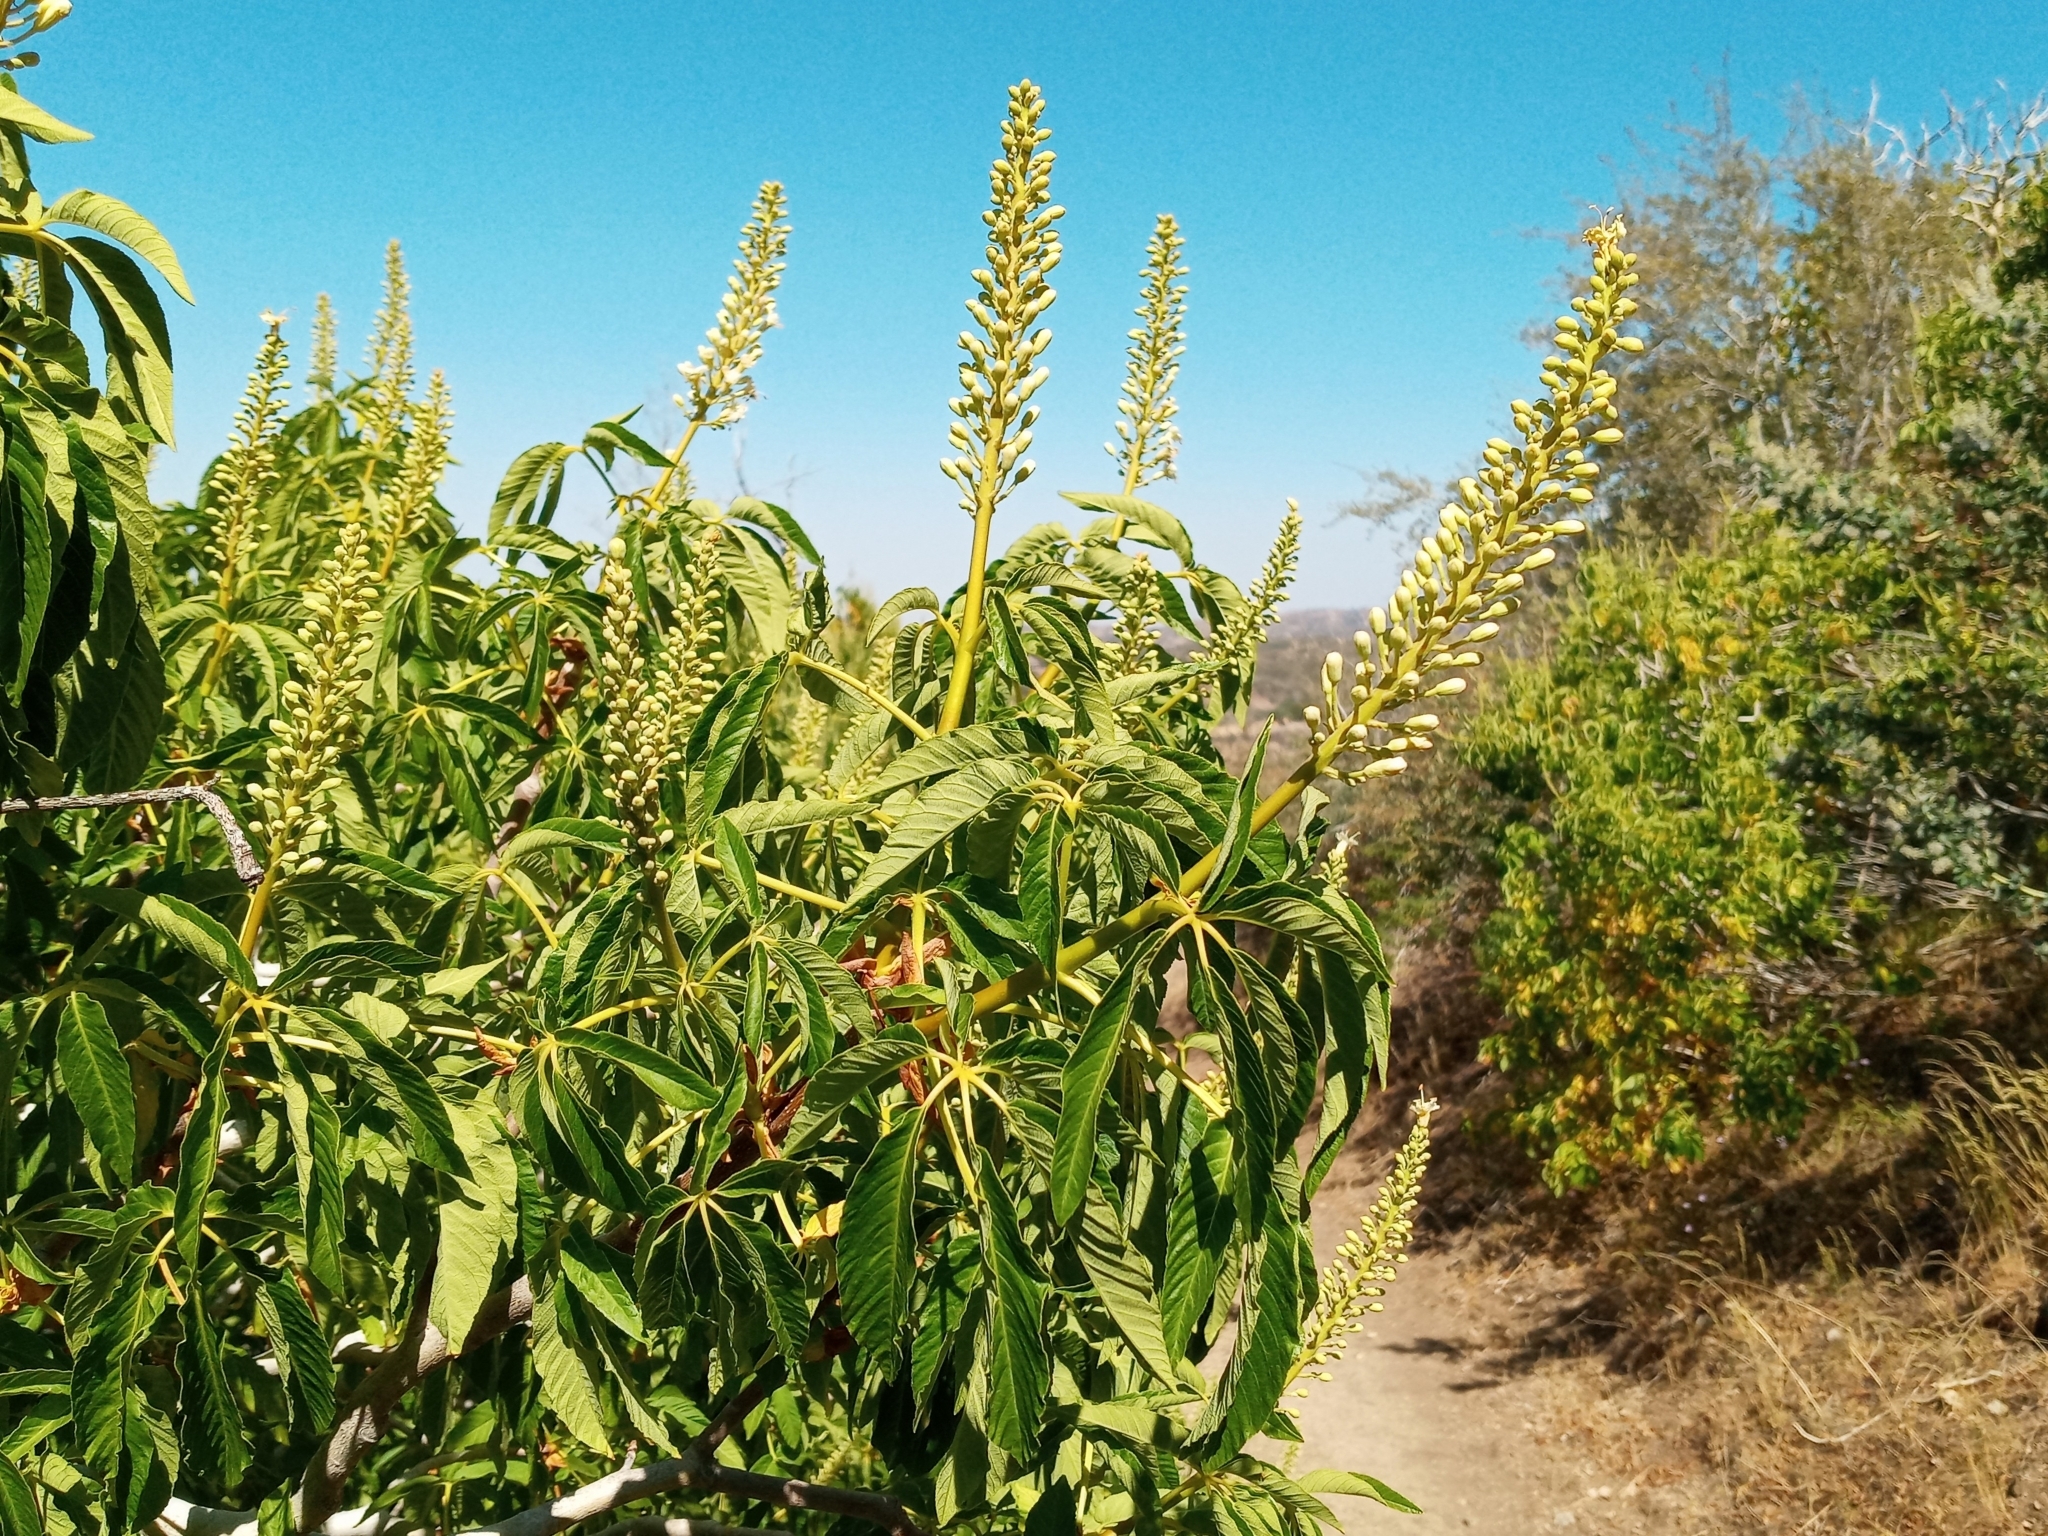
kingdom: Plantae
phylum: Tracheophyta
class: Magnoliopsida
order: Sapindales
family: Sapindaceae
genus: Aesculus
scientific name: Aesculus californica
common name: California buckeye
